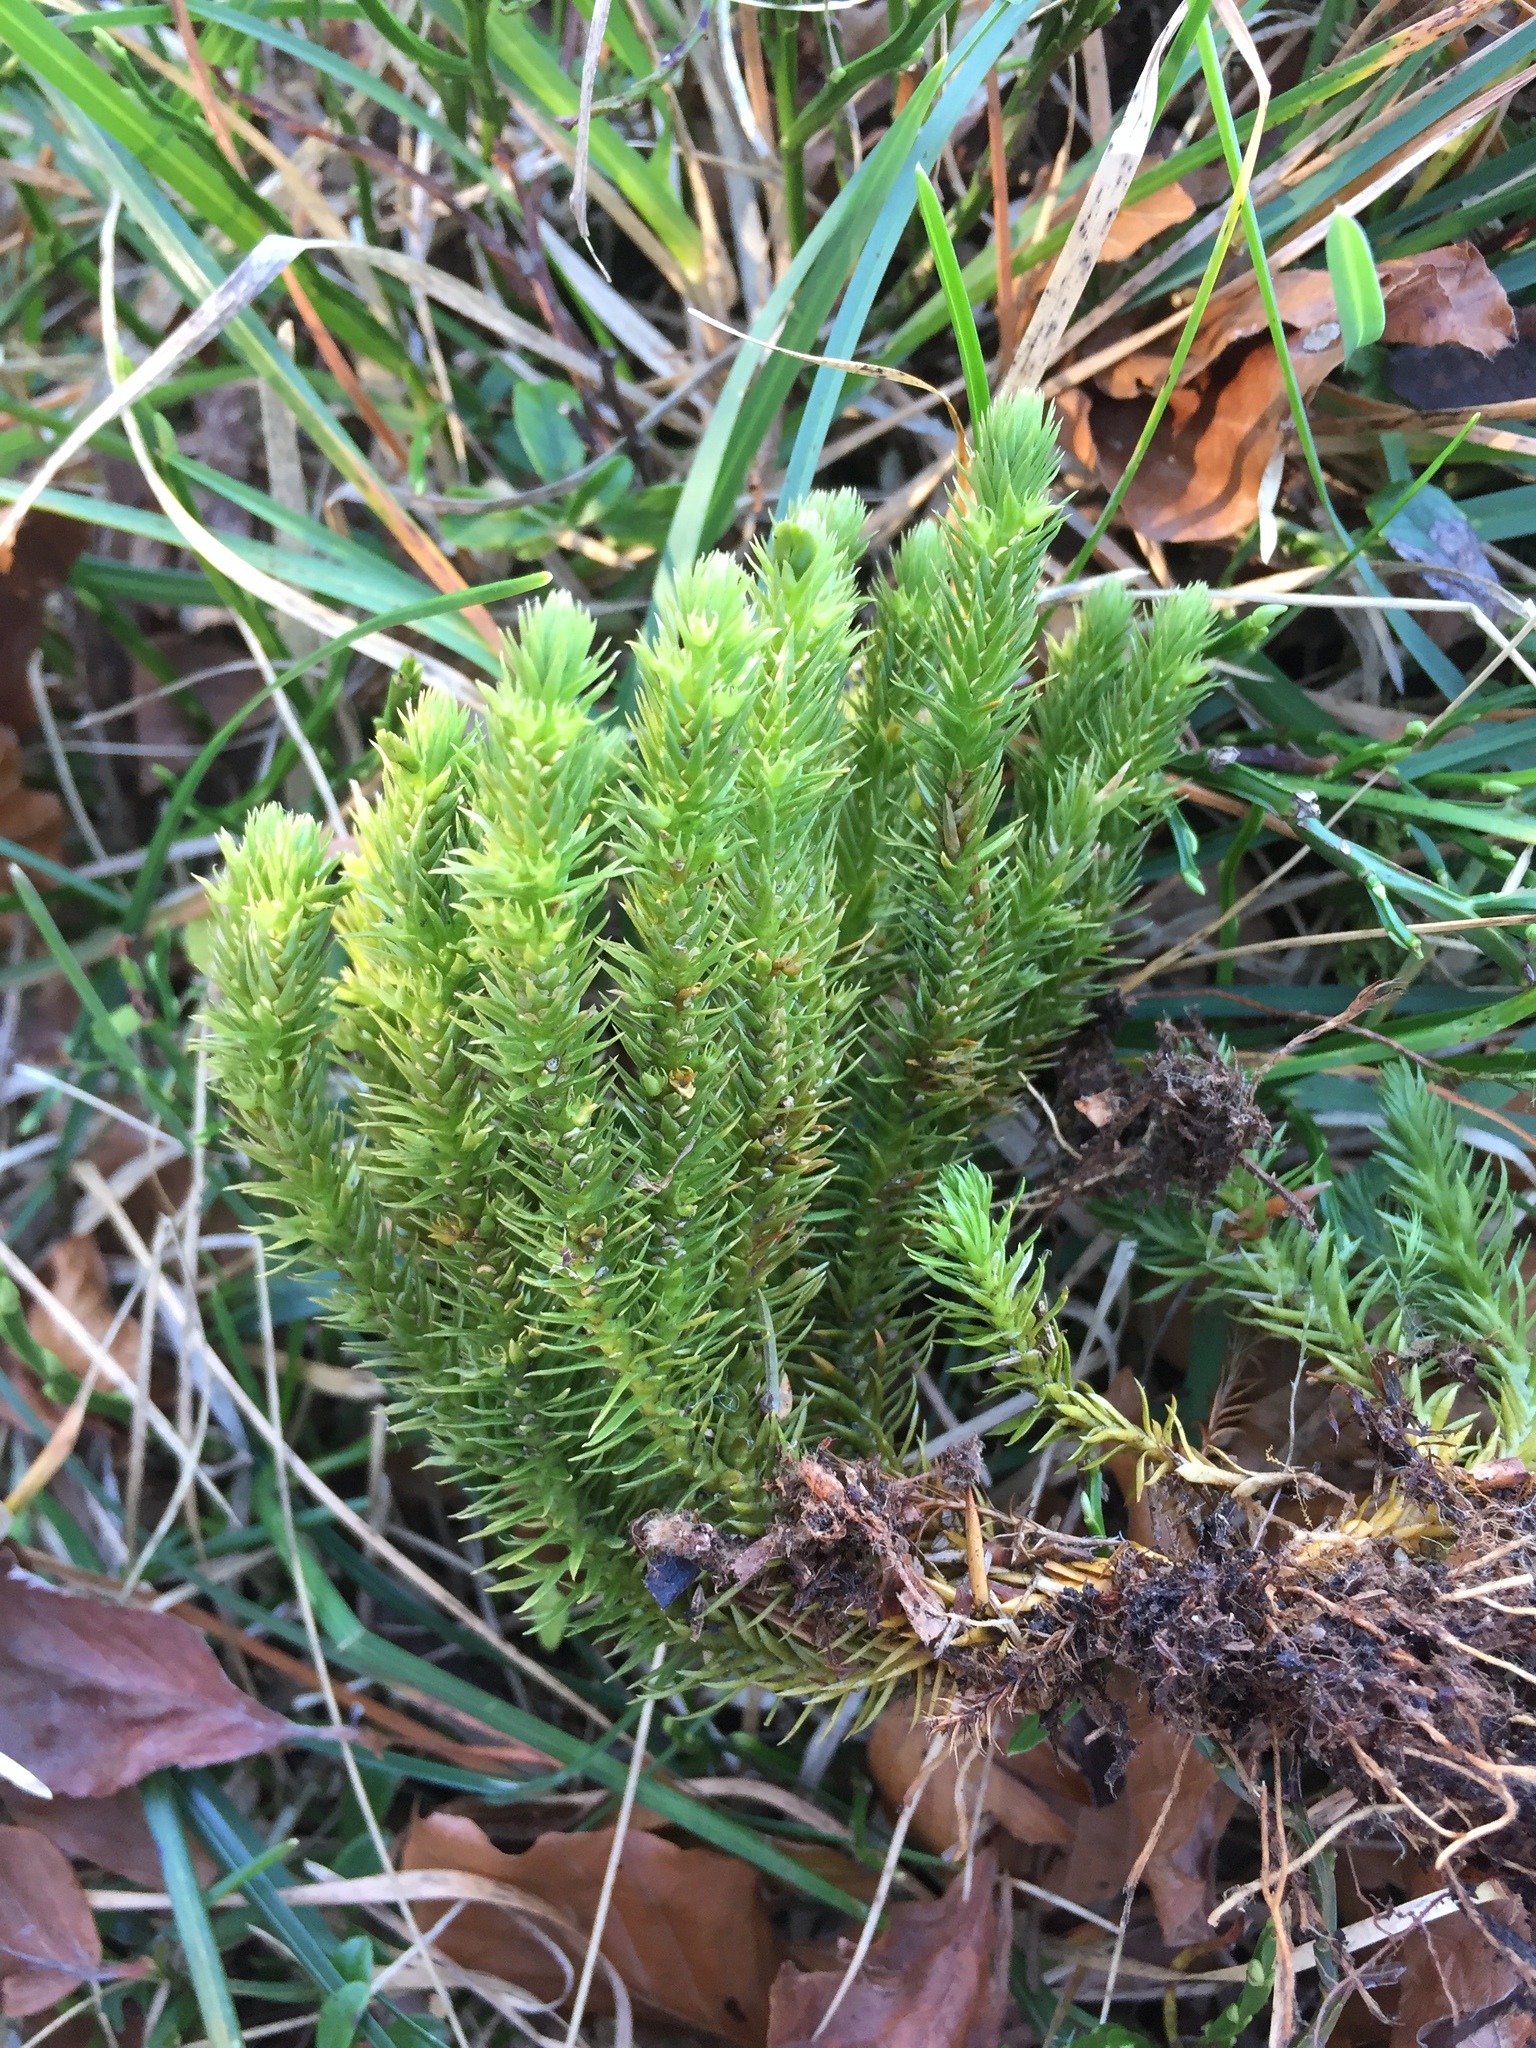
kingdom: Plantae
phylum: Tracheophyta
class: Lycopodiopsida
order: Lycopodiales
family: Lycopodiaceae
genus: Huperzia
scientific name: Huperzia selago
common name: Northern firmoss
